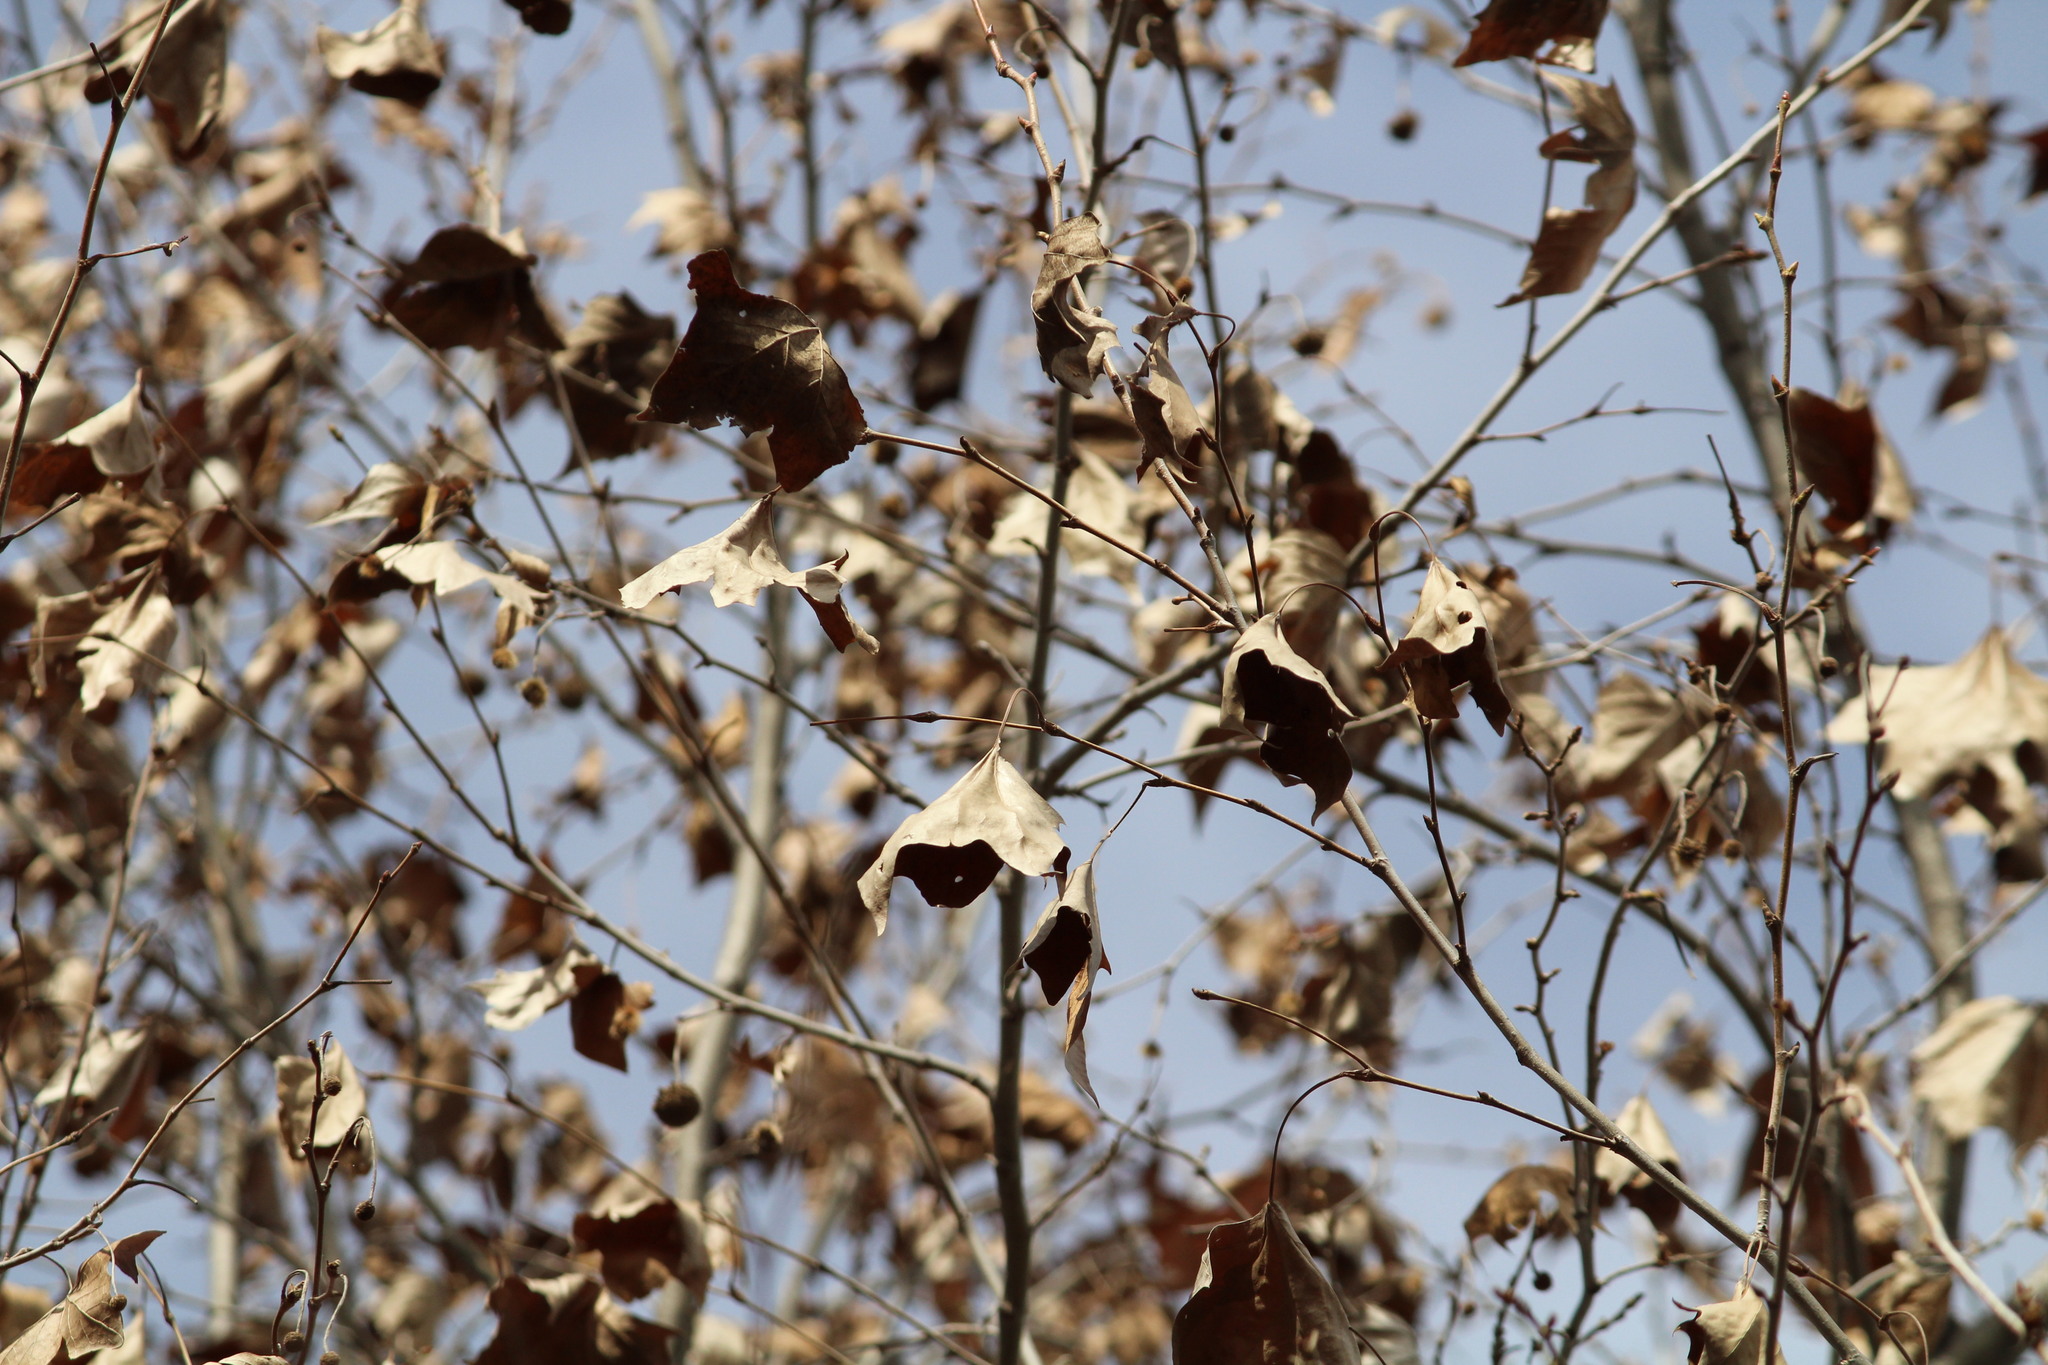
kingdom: Plantae
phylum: Tracheophyta
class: Magnoliopsida
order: Proteales
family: Platanaceae
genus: Platanus
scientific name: Platanus occidentalis
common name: American sycamore
